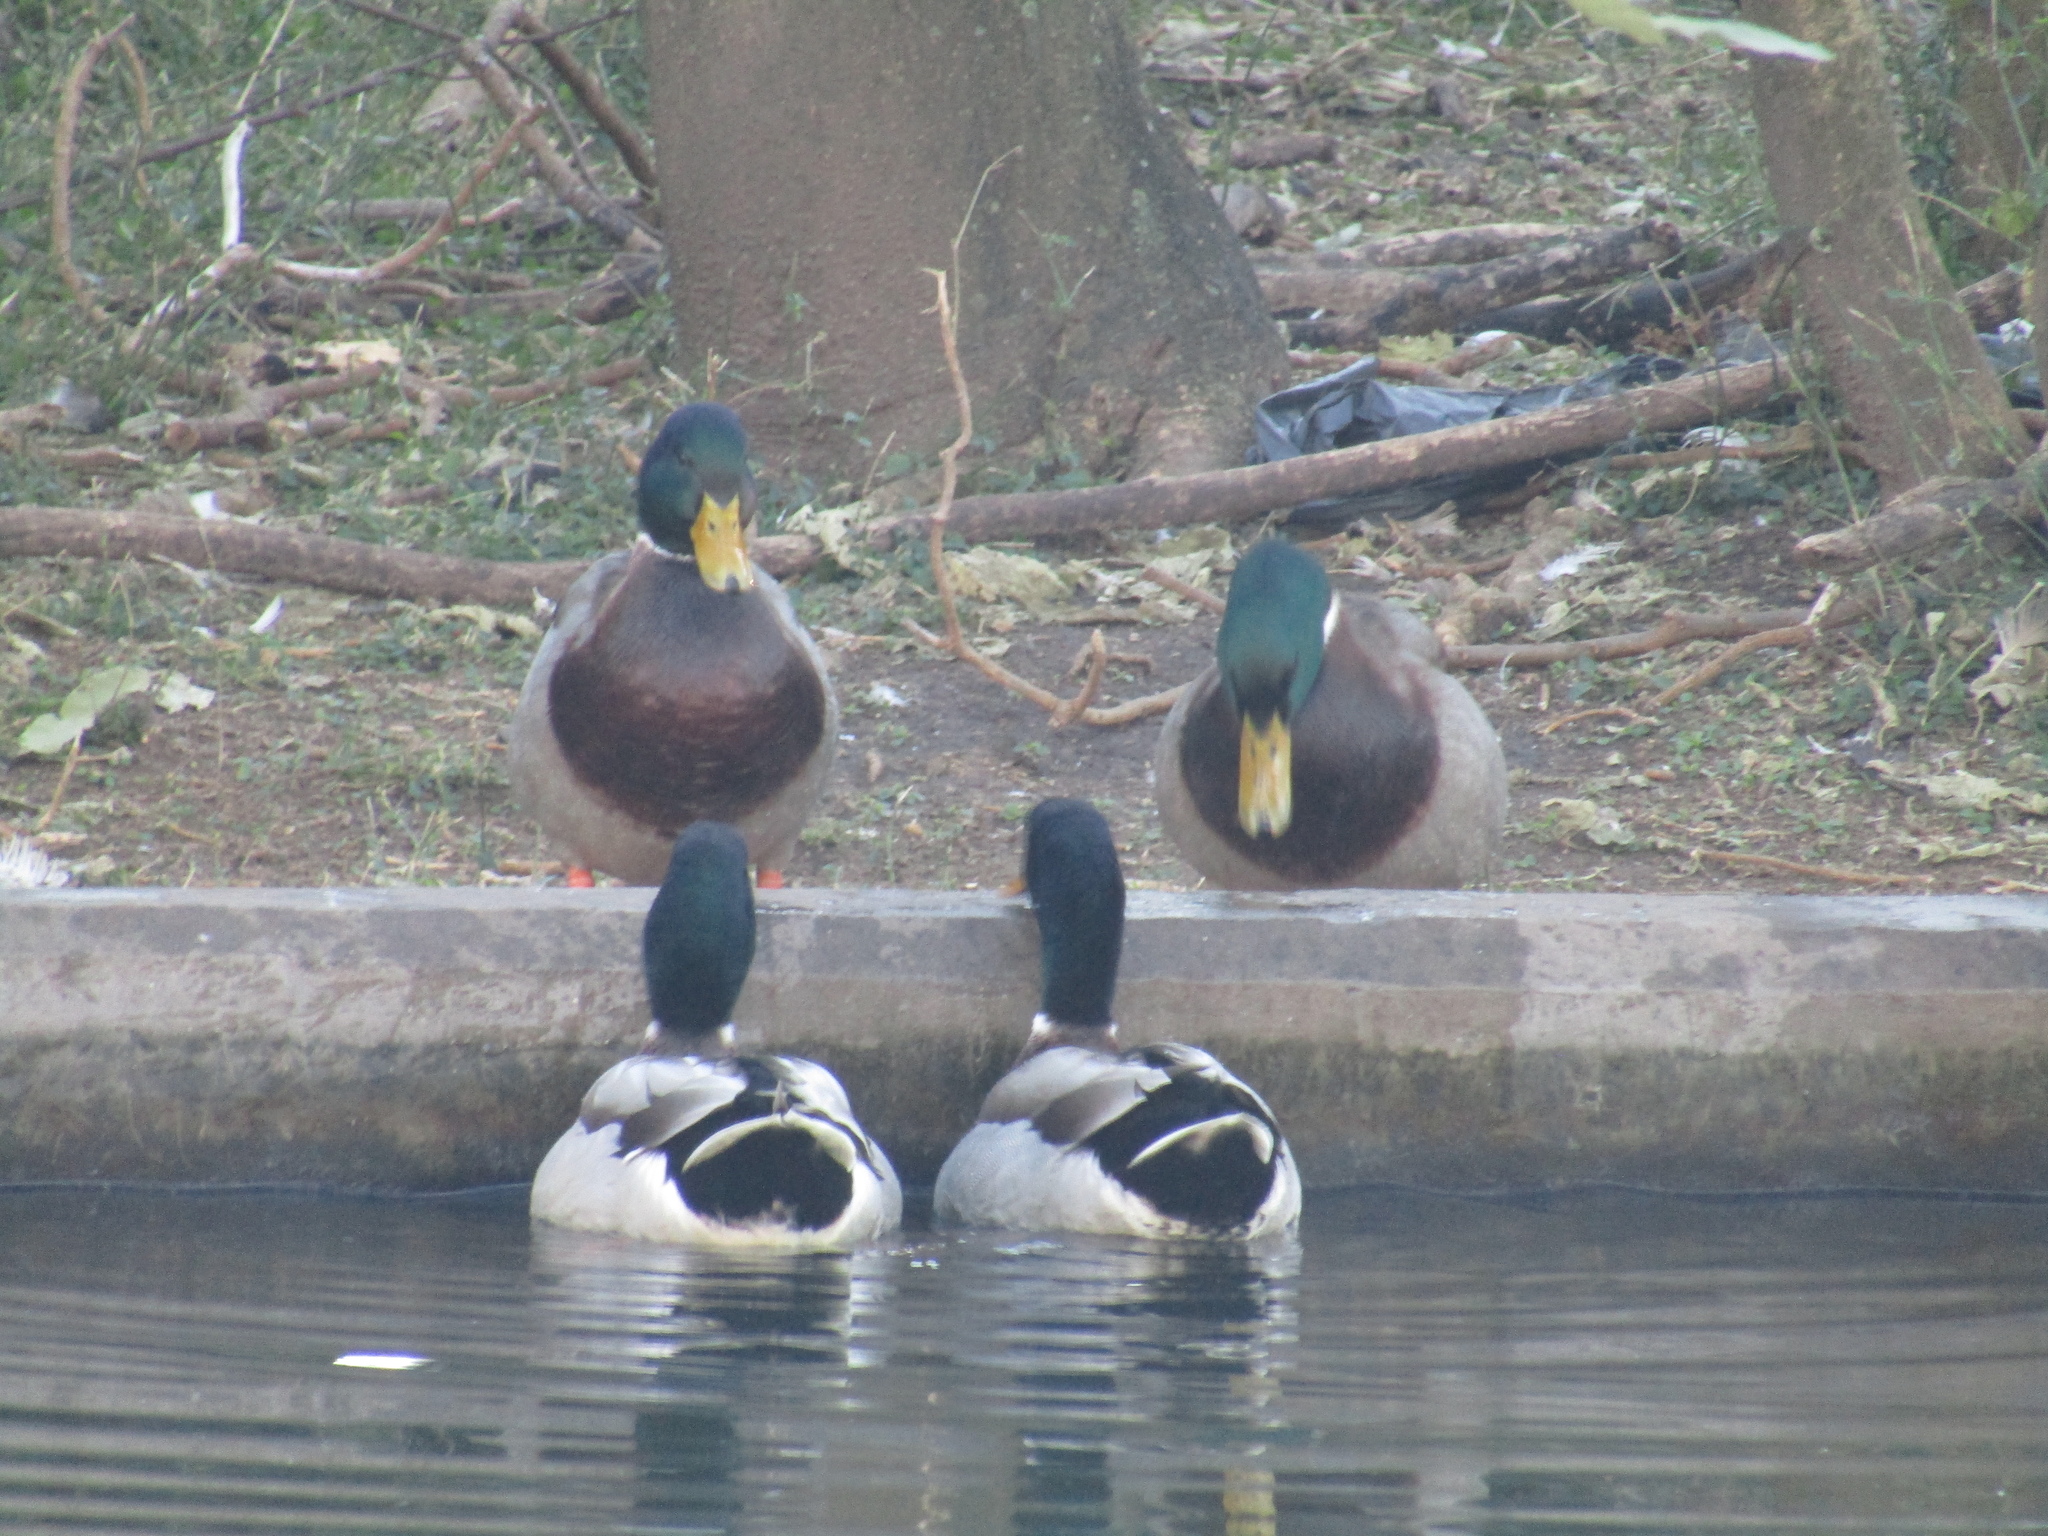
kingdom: Animalia
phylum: Chordata
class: Aves
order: Anseriformes
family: Anatidae
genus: Anas
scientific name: Anas platyrhynchos
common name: Mallard
